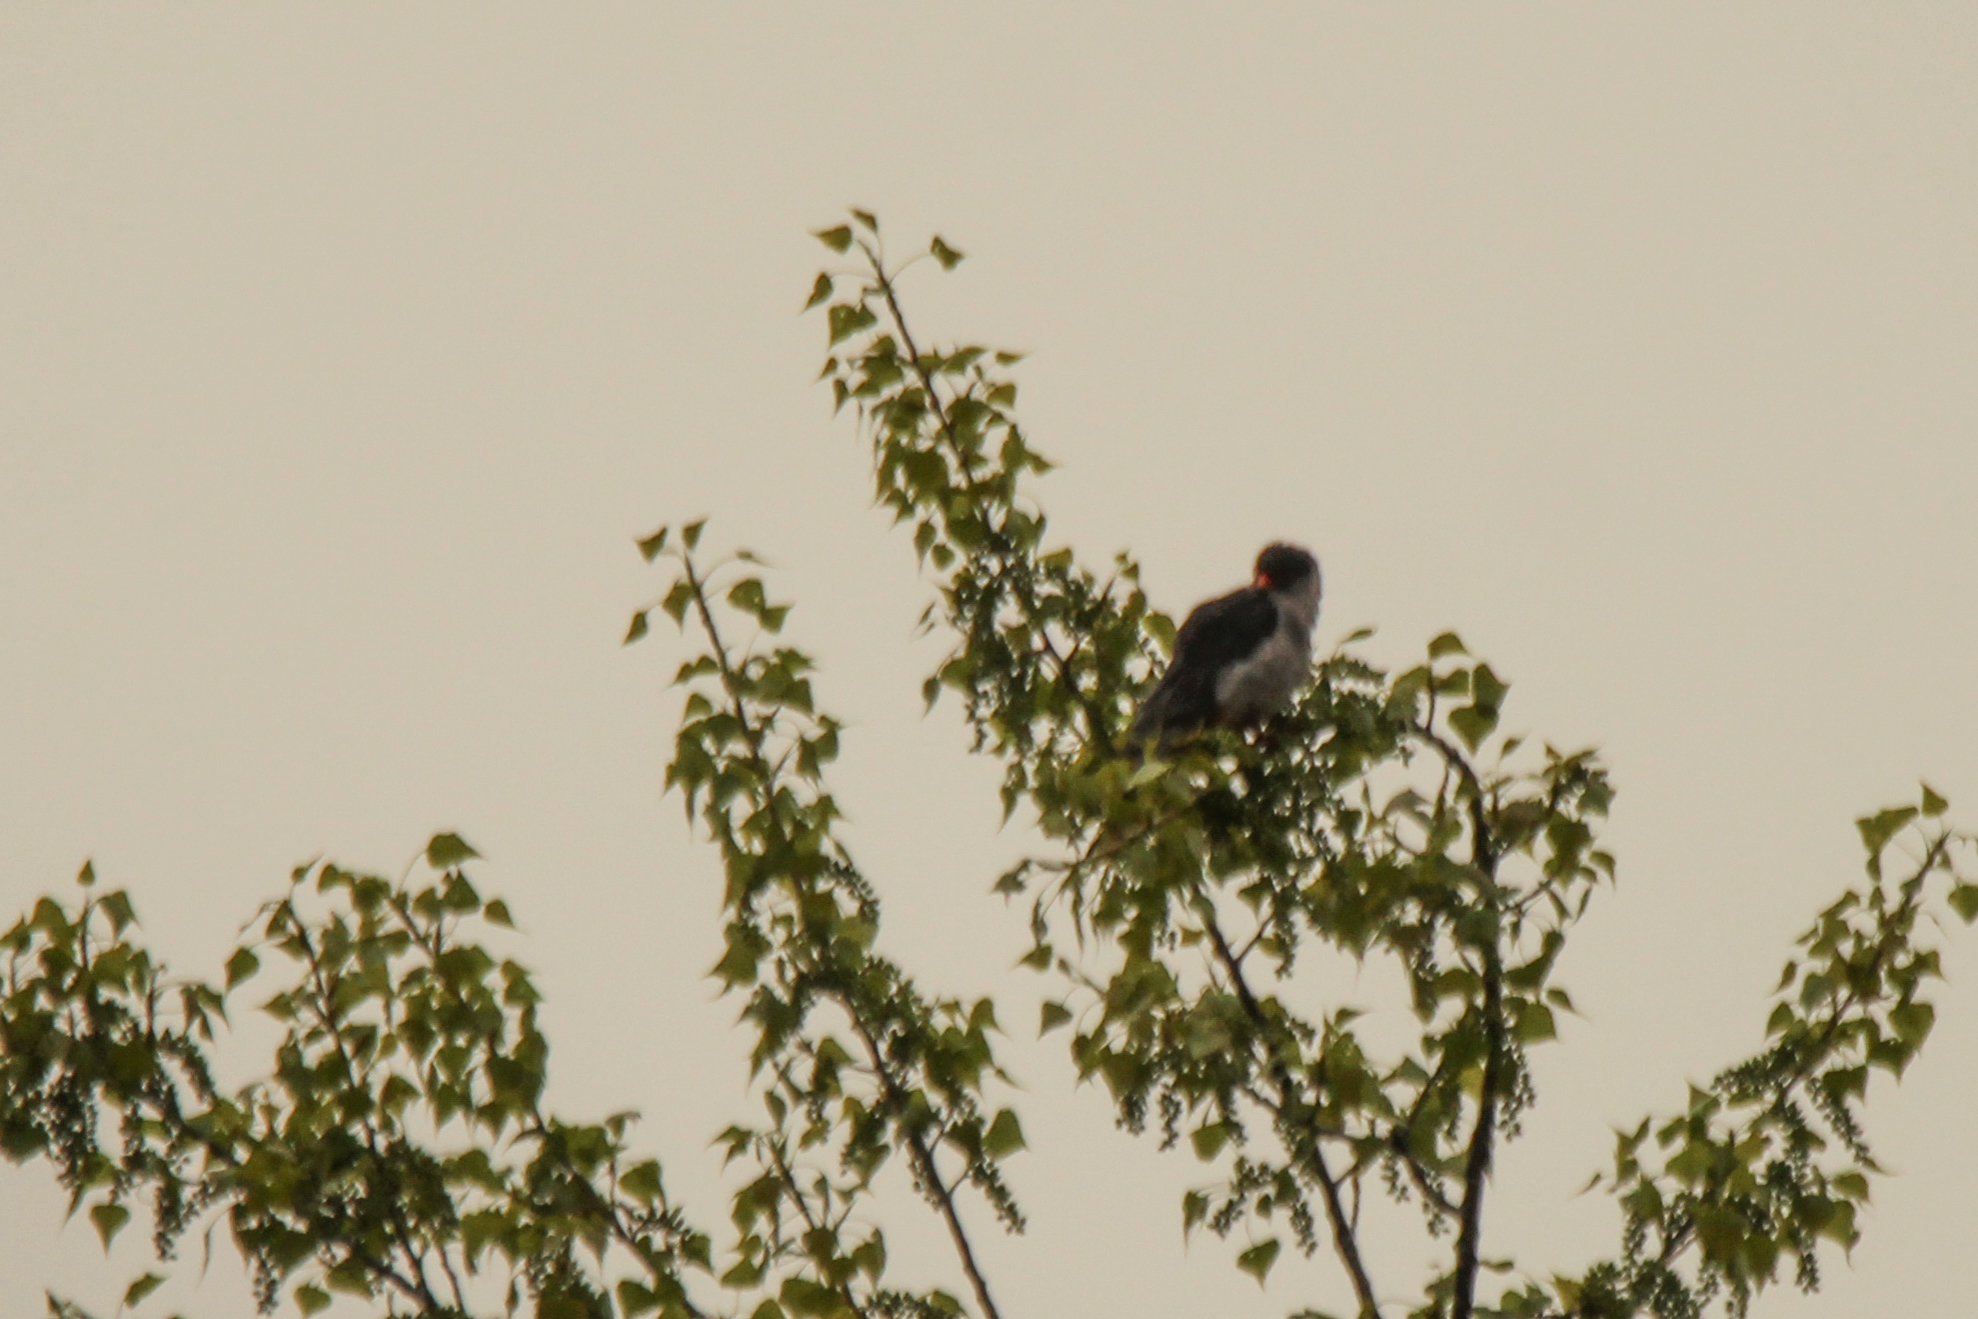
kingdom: Animalia
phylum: Chordata
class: Aves
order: Falconiformes
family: Falconidae
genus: Falco
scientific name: Falco amurensis
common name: Amur falcon
